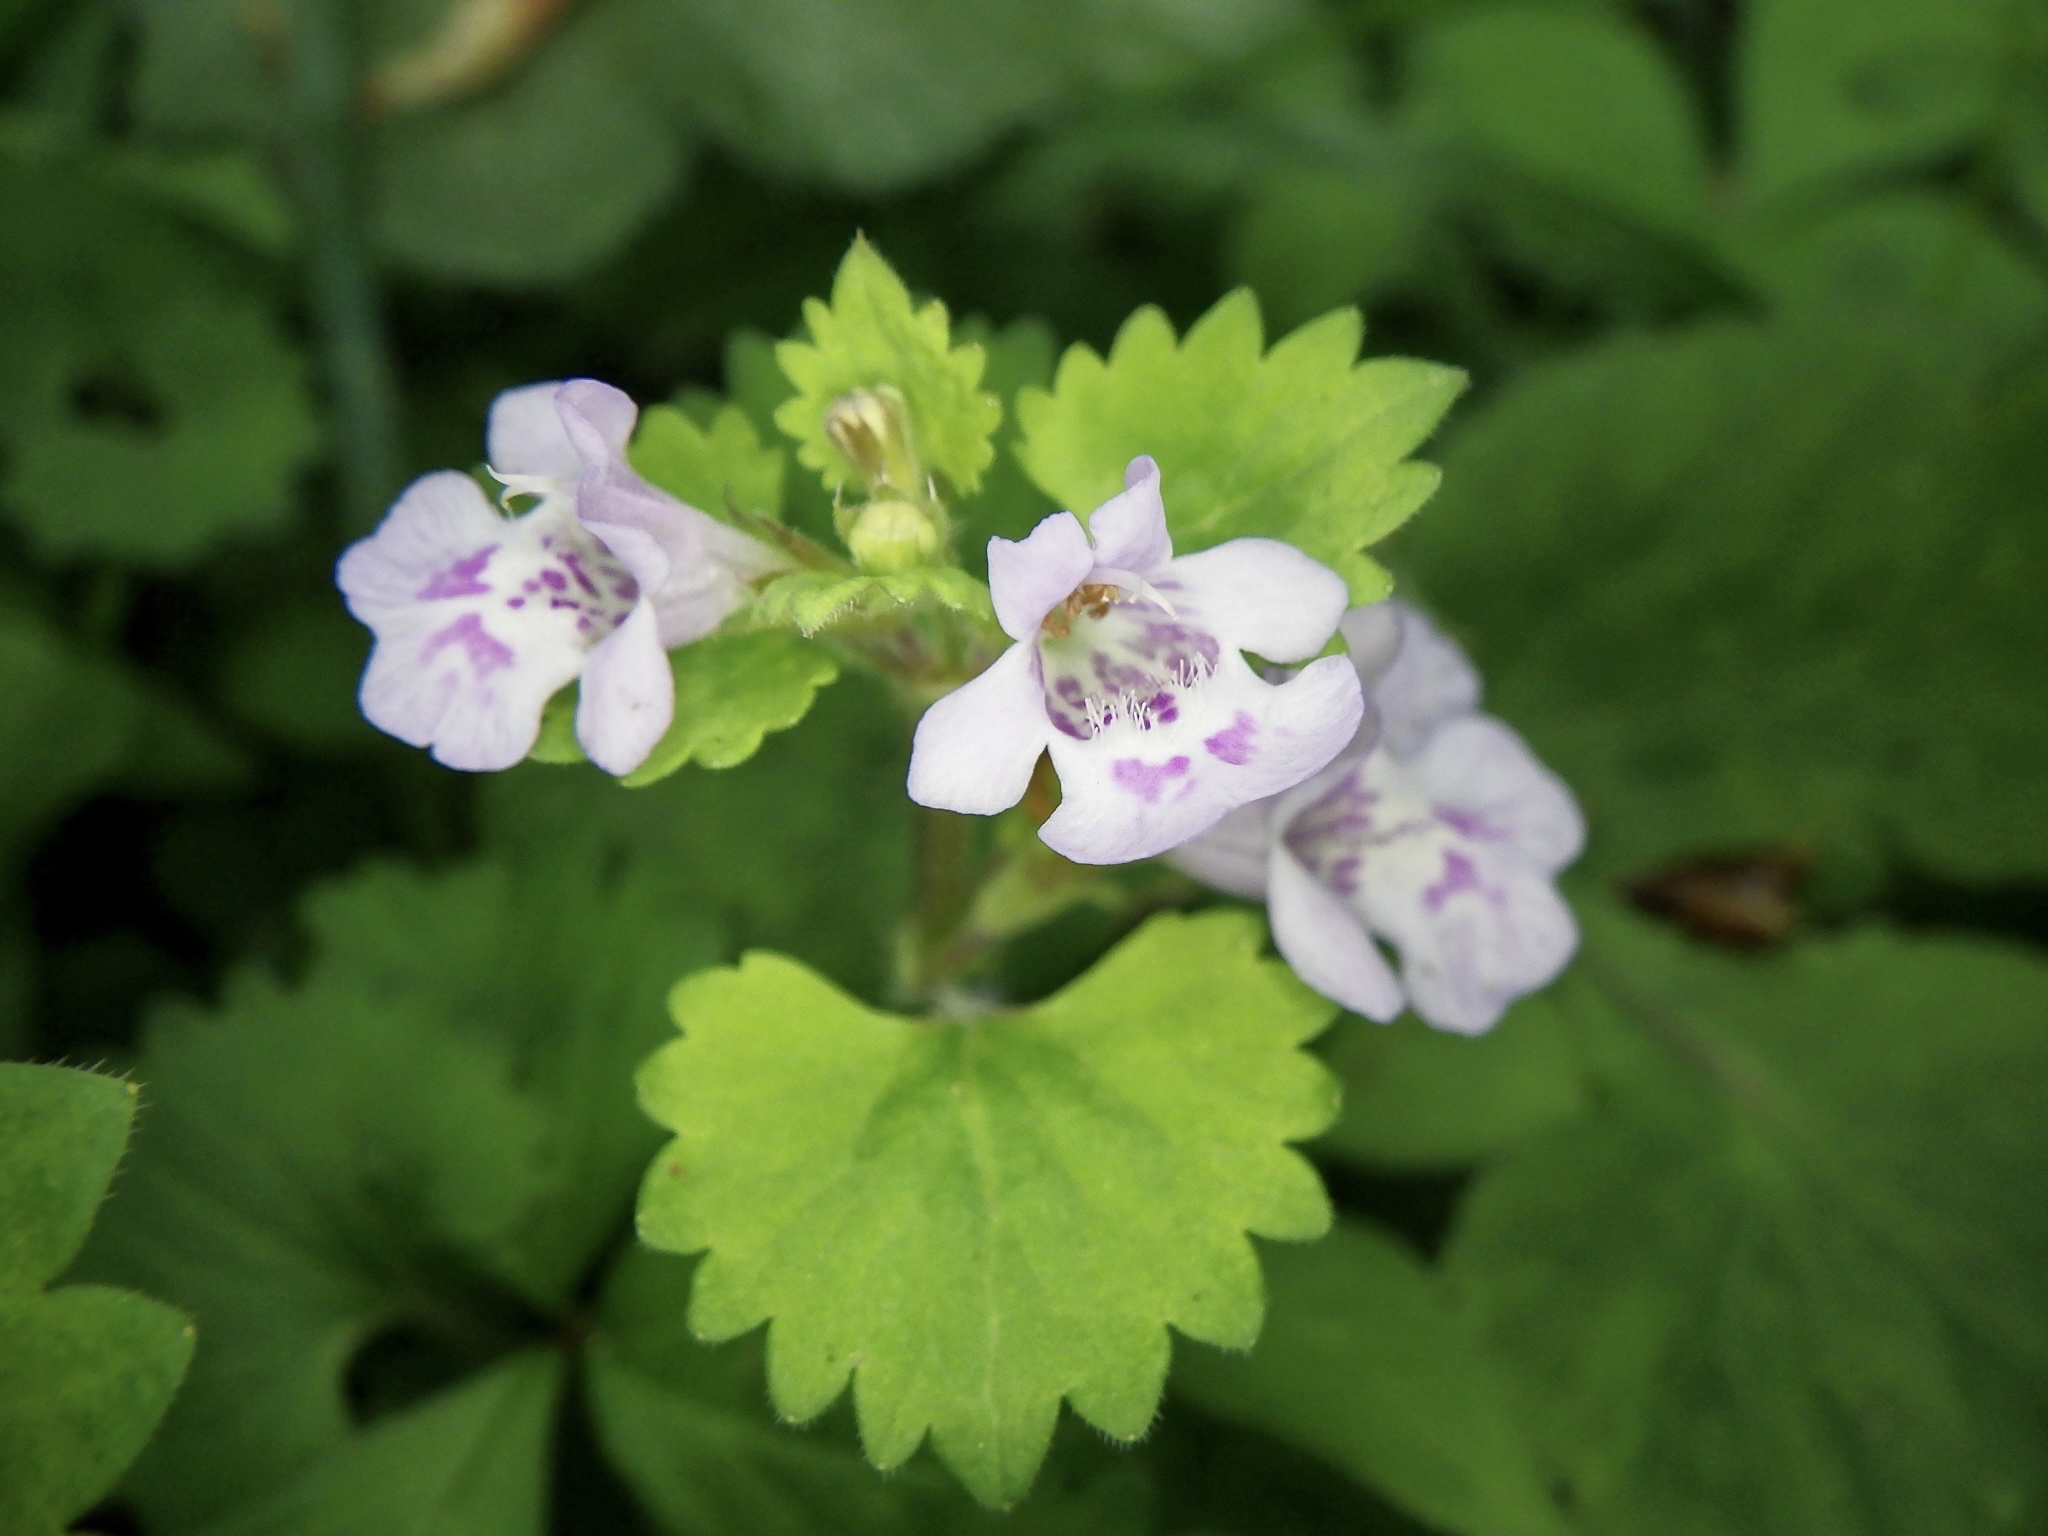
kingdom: Plantae
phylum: Tracheophyta
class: Magnoliopsida
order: Lamiales
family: Lamiaceae
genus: Glechoma
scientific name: Glechoma grandis
